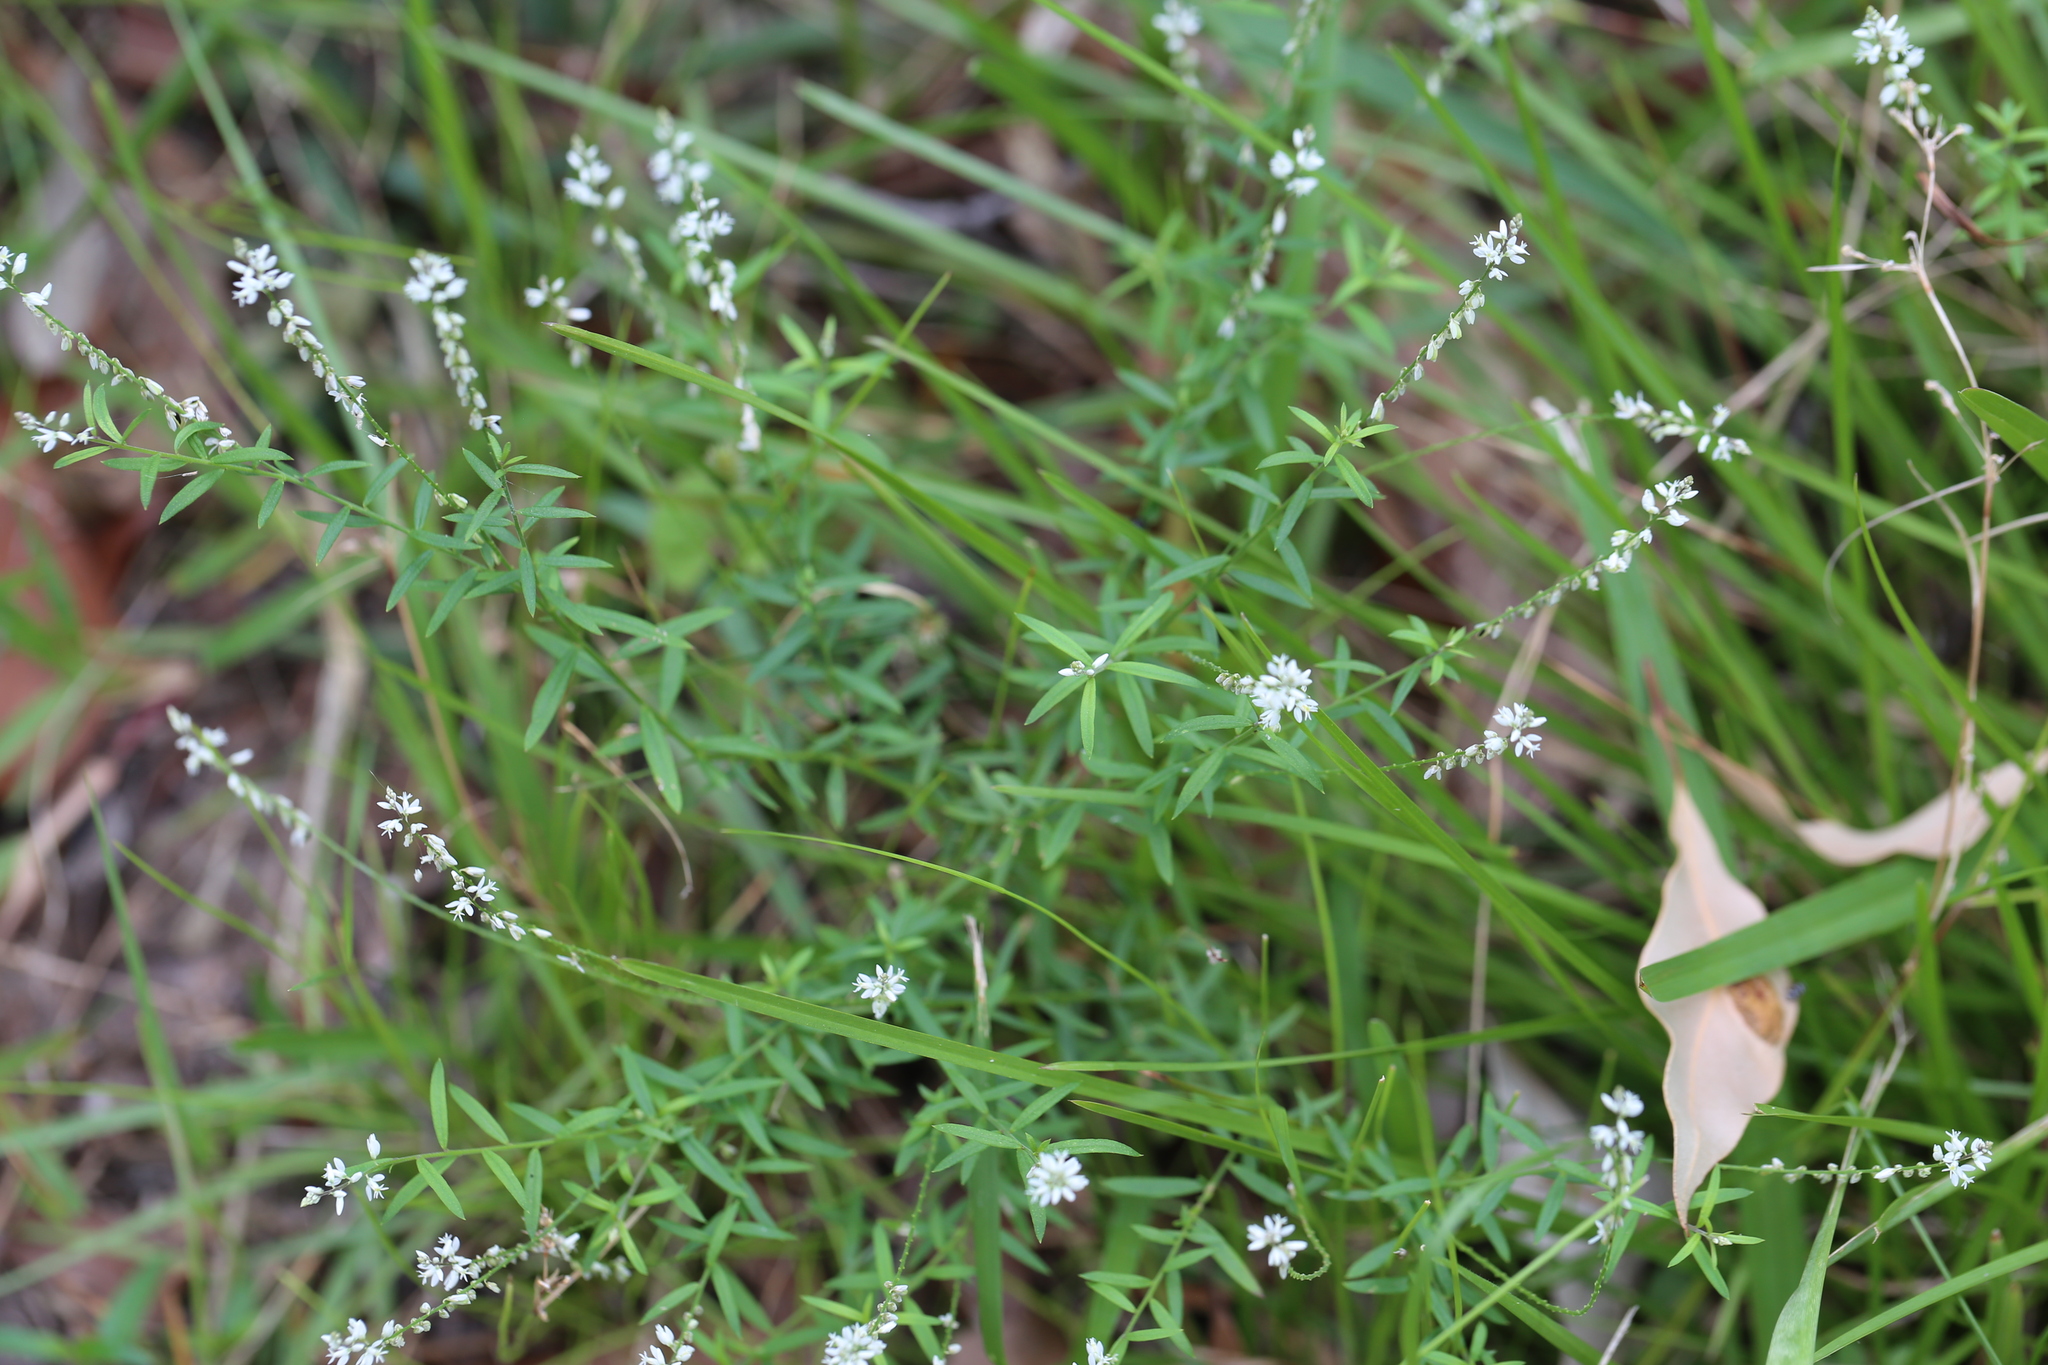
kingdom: Plantae
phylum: Tracheophyta
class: Magnoliopsida
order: Fabales
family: Polygalaceae
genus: Polygala
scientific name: Polygala paniculata
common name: Orosne
